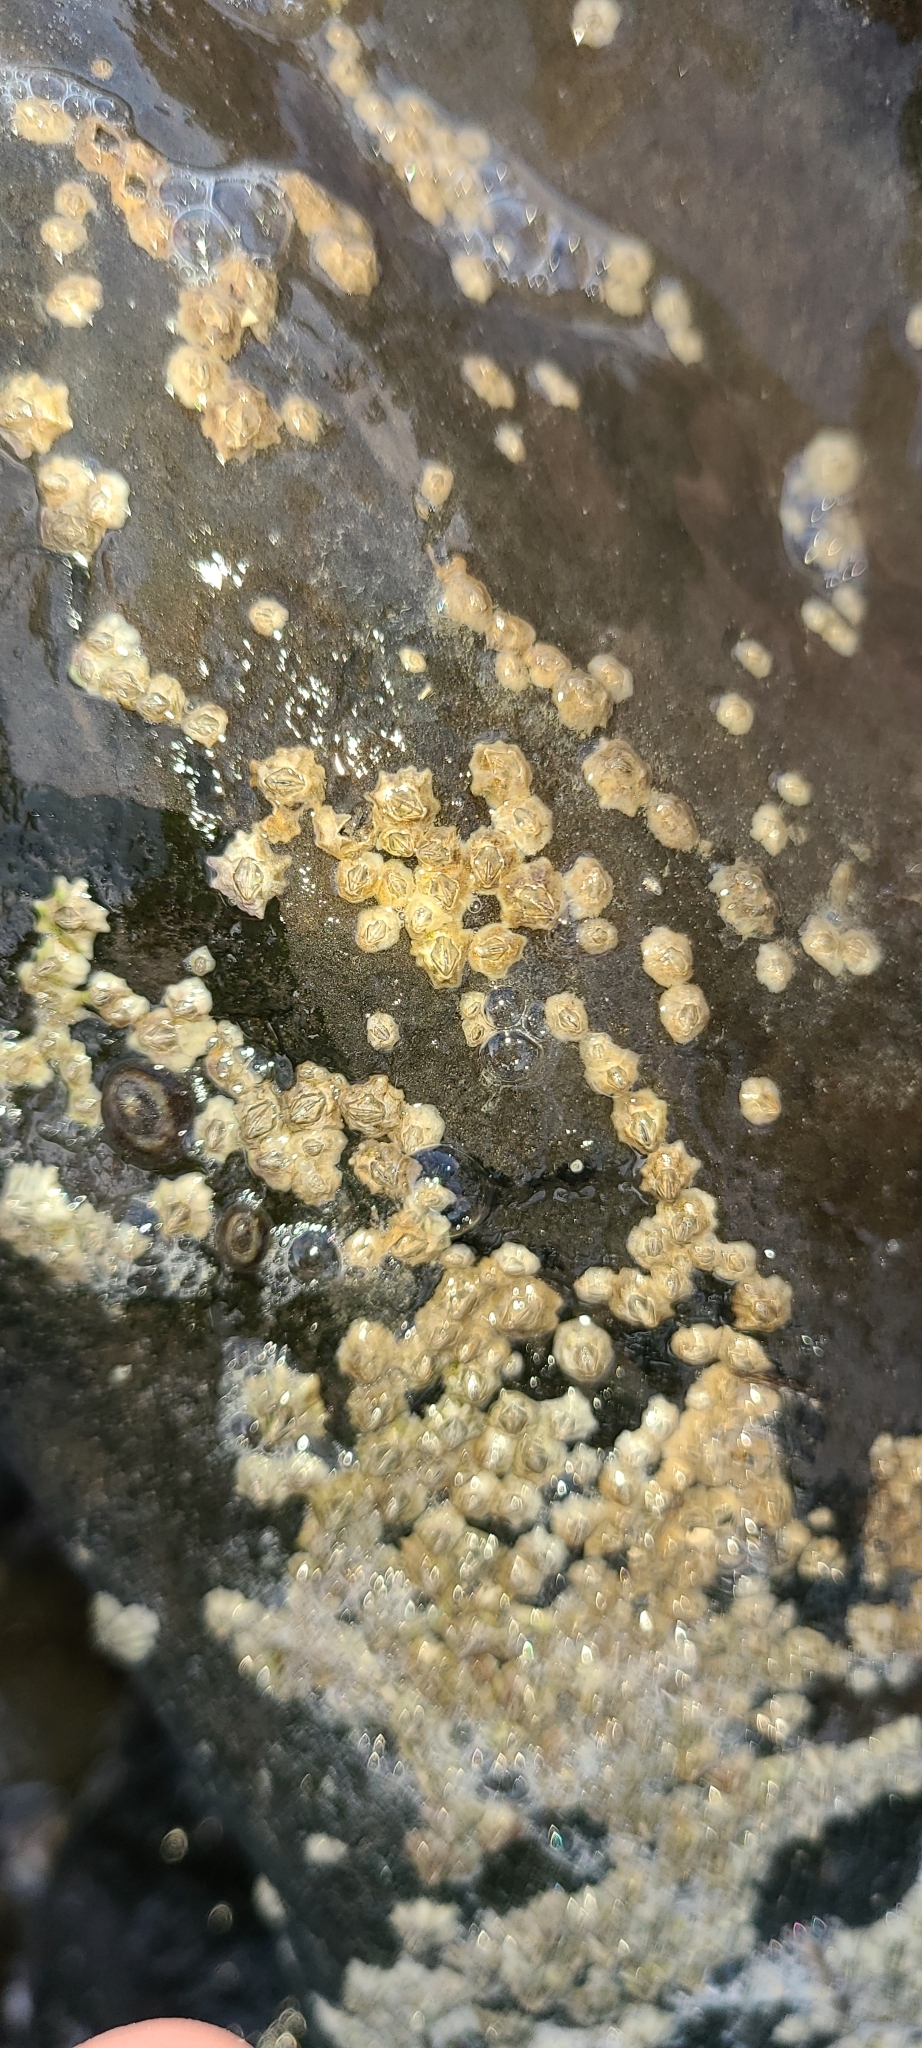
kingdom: Animalia
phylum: Arthropoda
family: Elminiidae
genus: Austrominius
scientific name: Austrominius modestus
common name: Australasian barnacle
